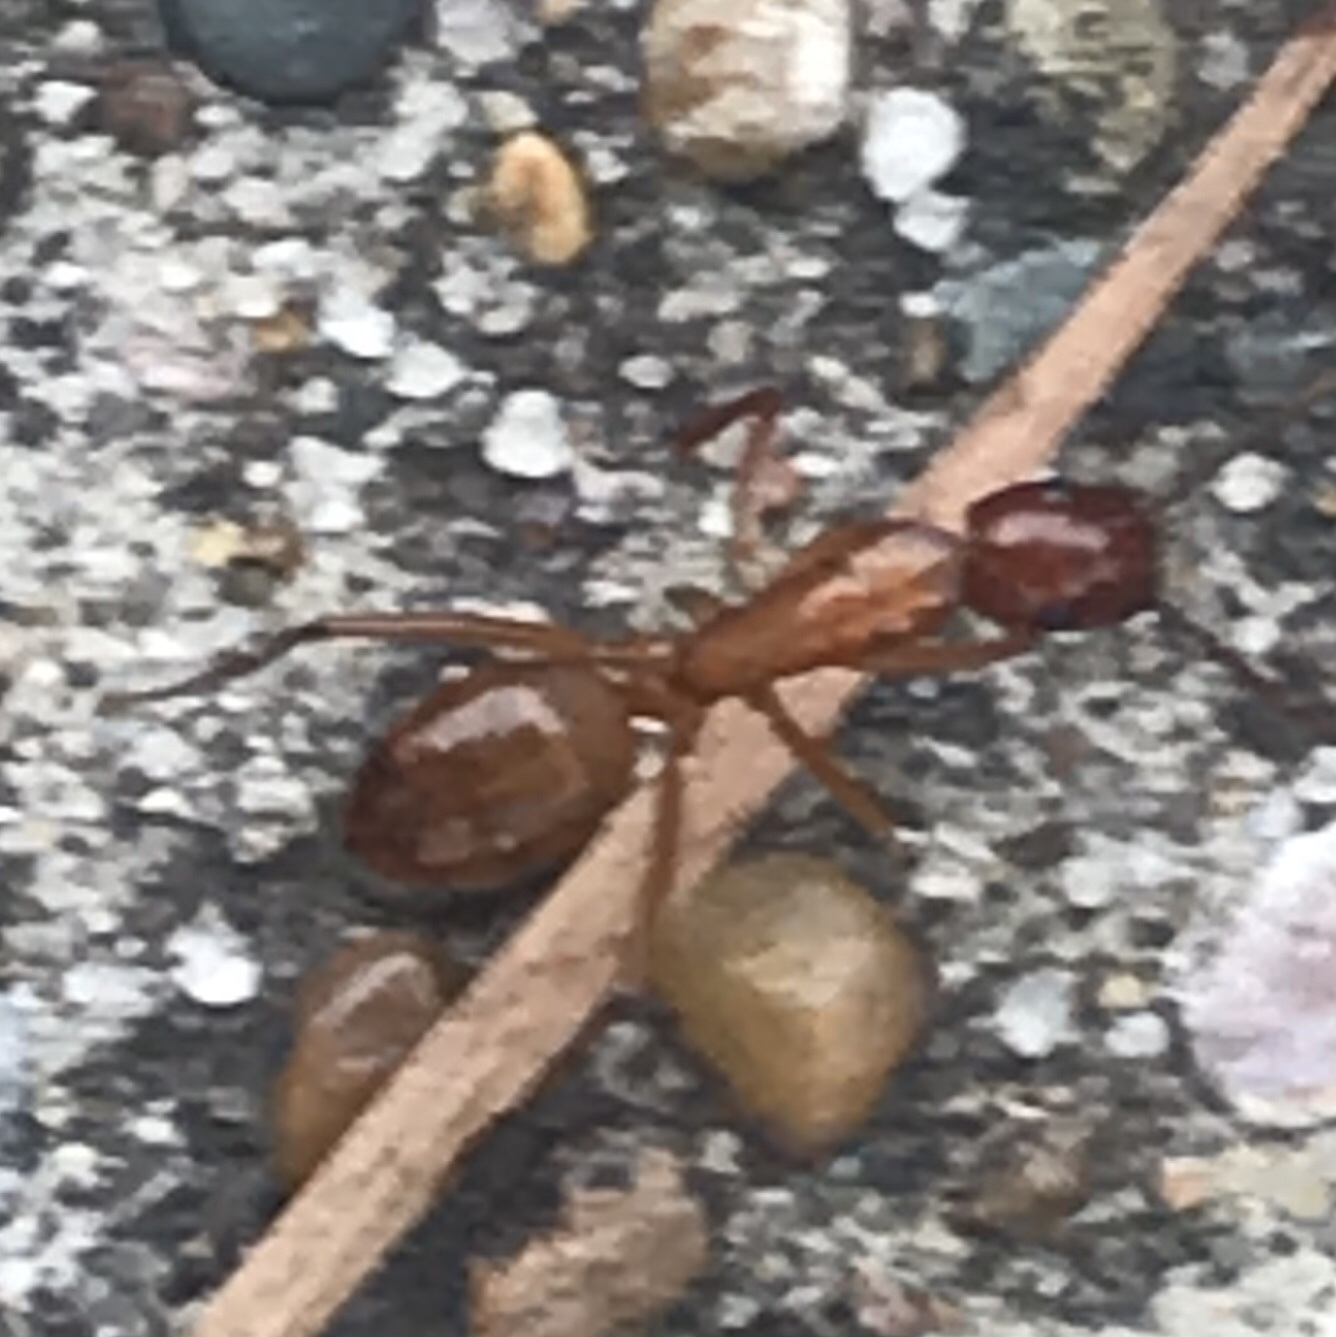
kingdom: Animalia
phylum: Arthropoda
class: Insecta
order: Hymenoptera
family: Formicidae
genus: Camponotus
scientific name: Camponotus castaneus
